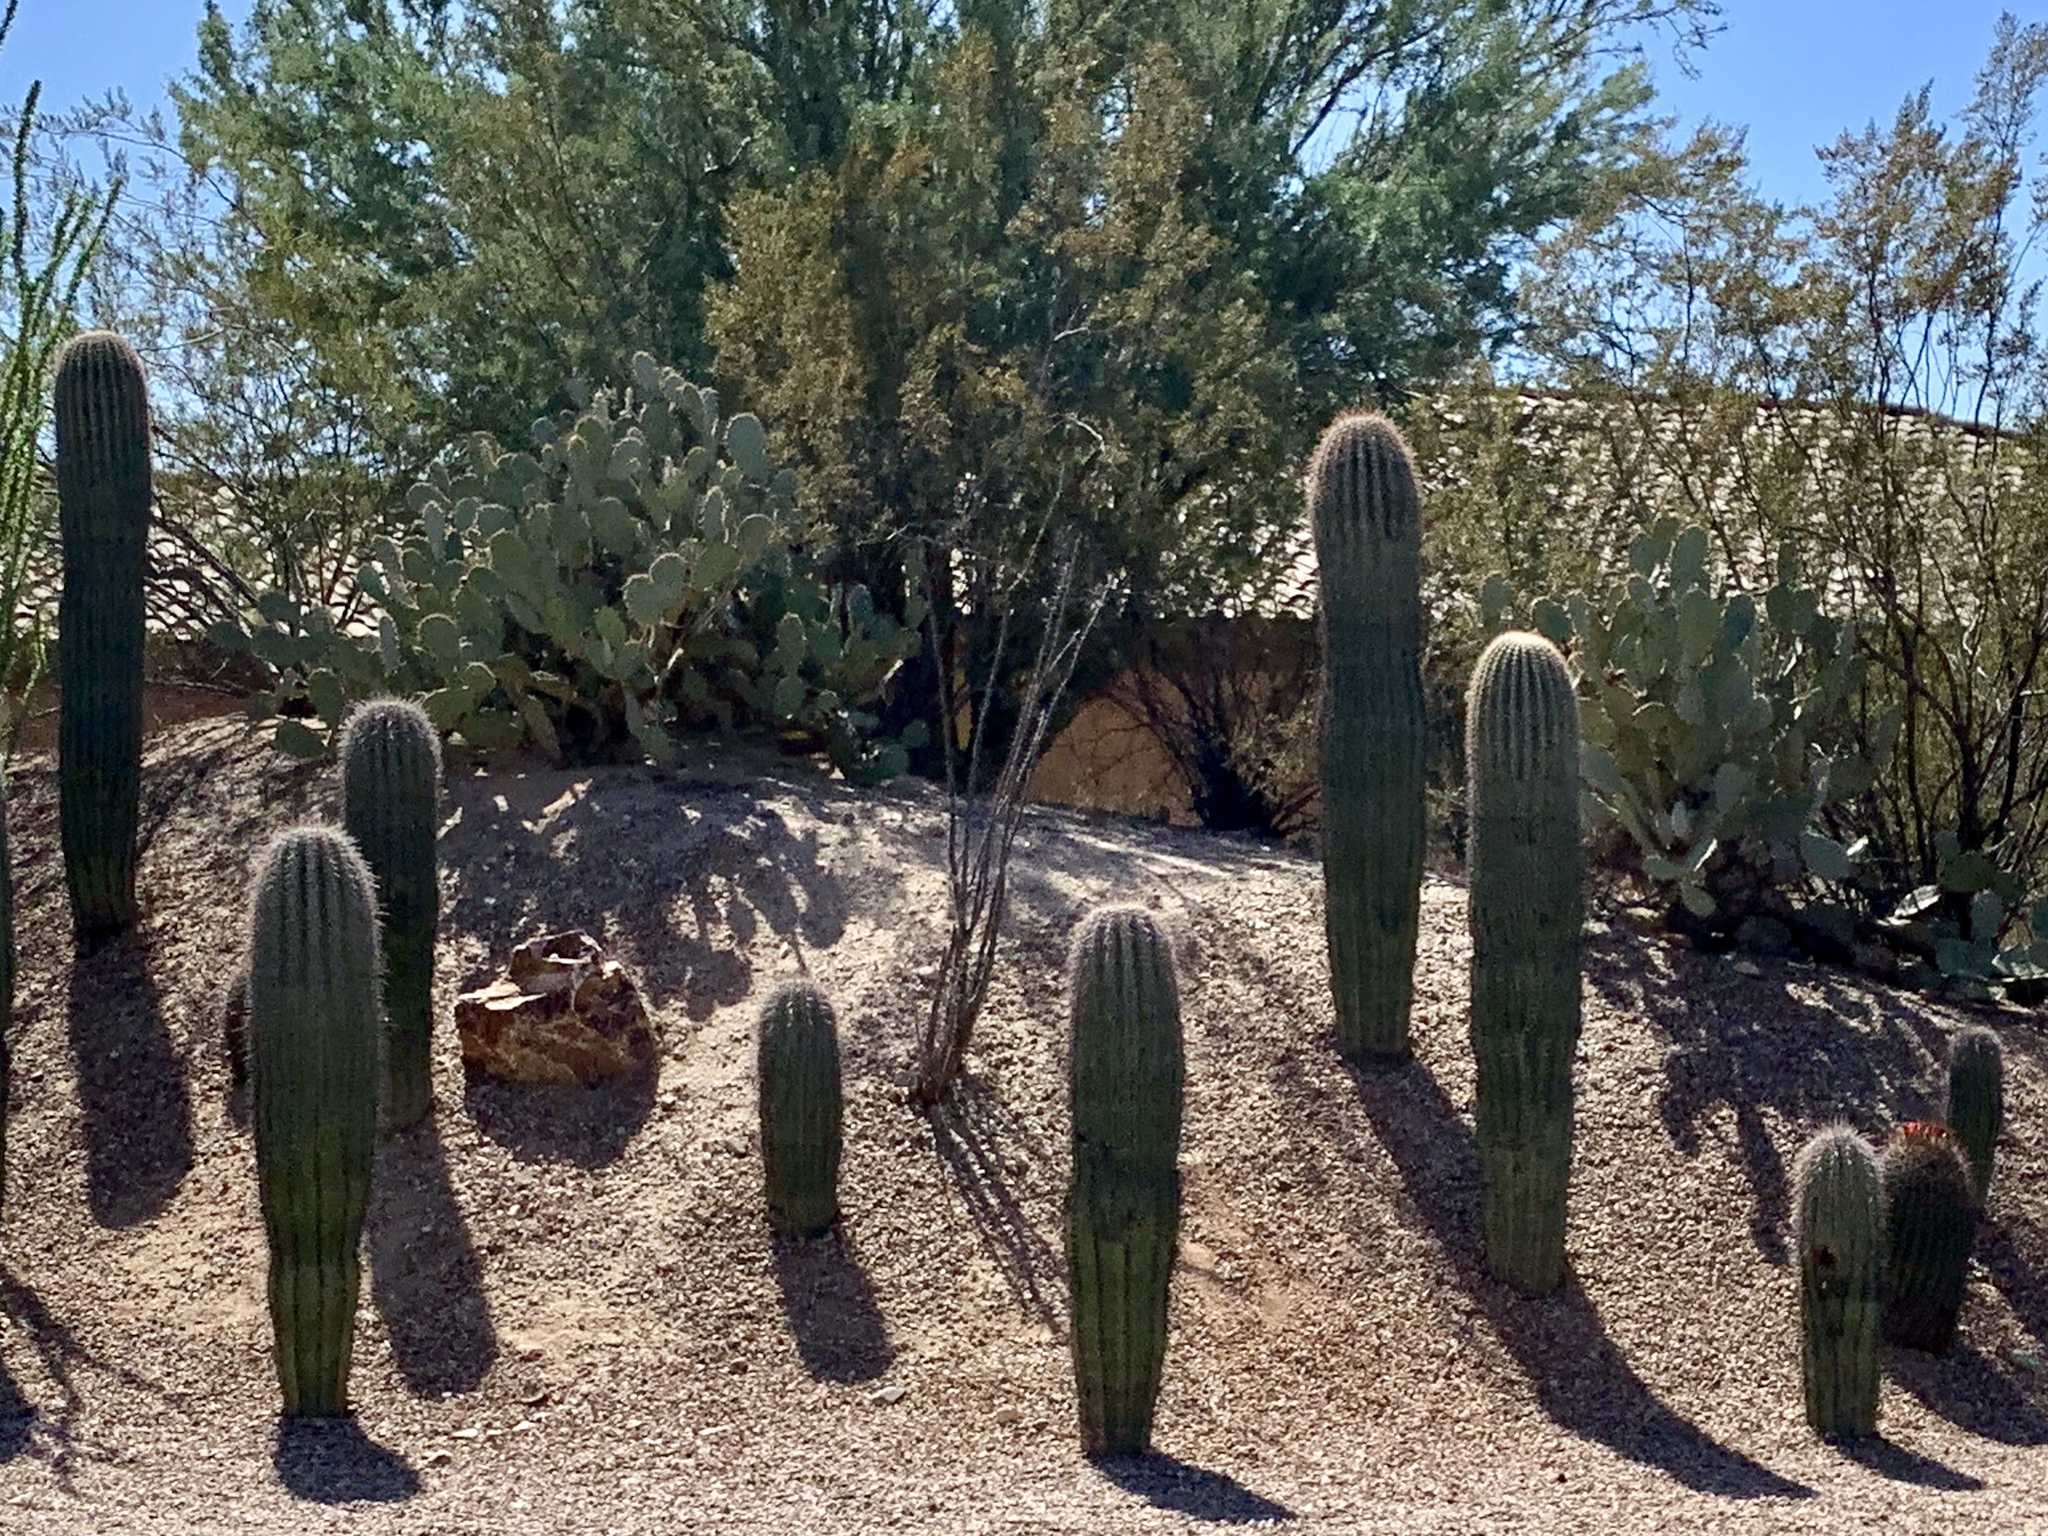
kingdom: Plantae
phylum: Tracheophyta
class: Magnoliopsida
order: Caryophyllales
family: Cactaceae
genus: Carnegiea
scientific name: Carnegiea gigantea
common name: Saguaro
